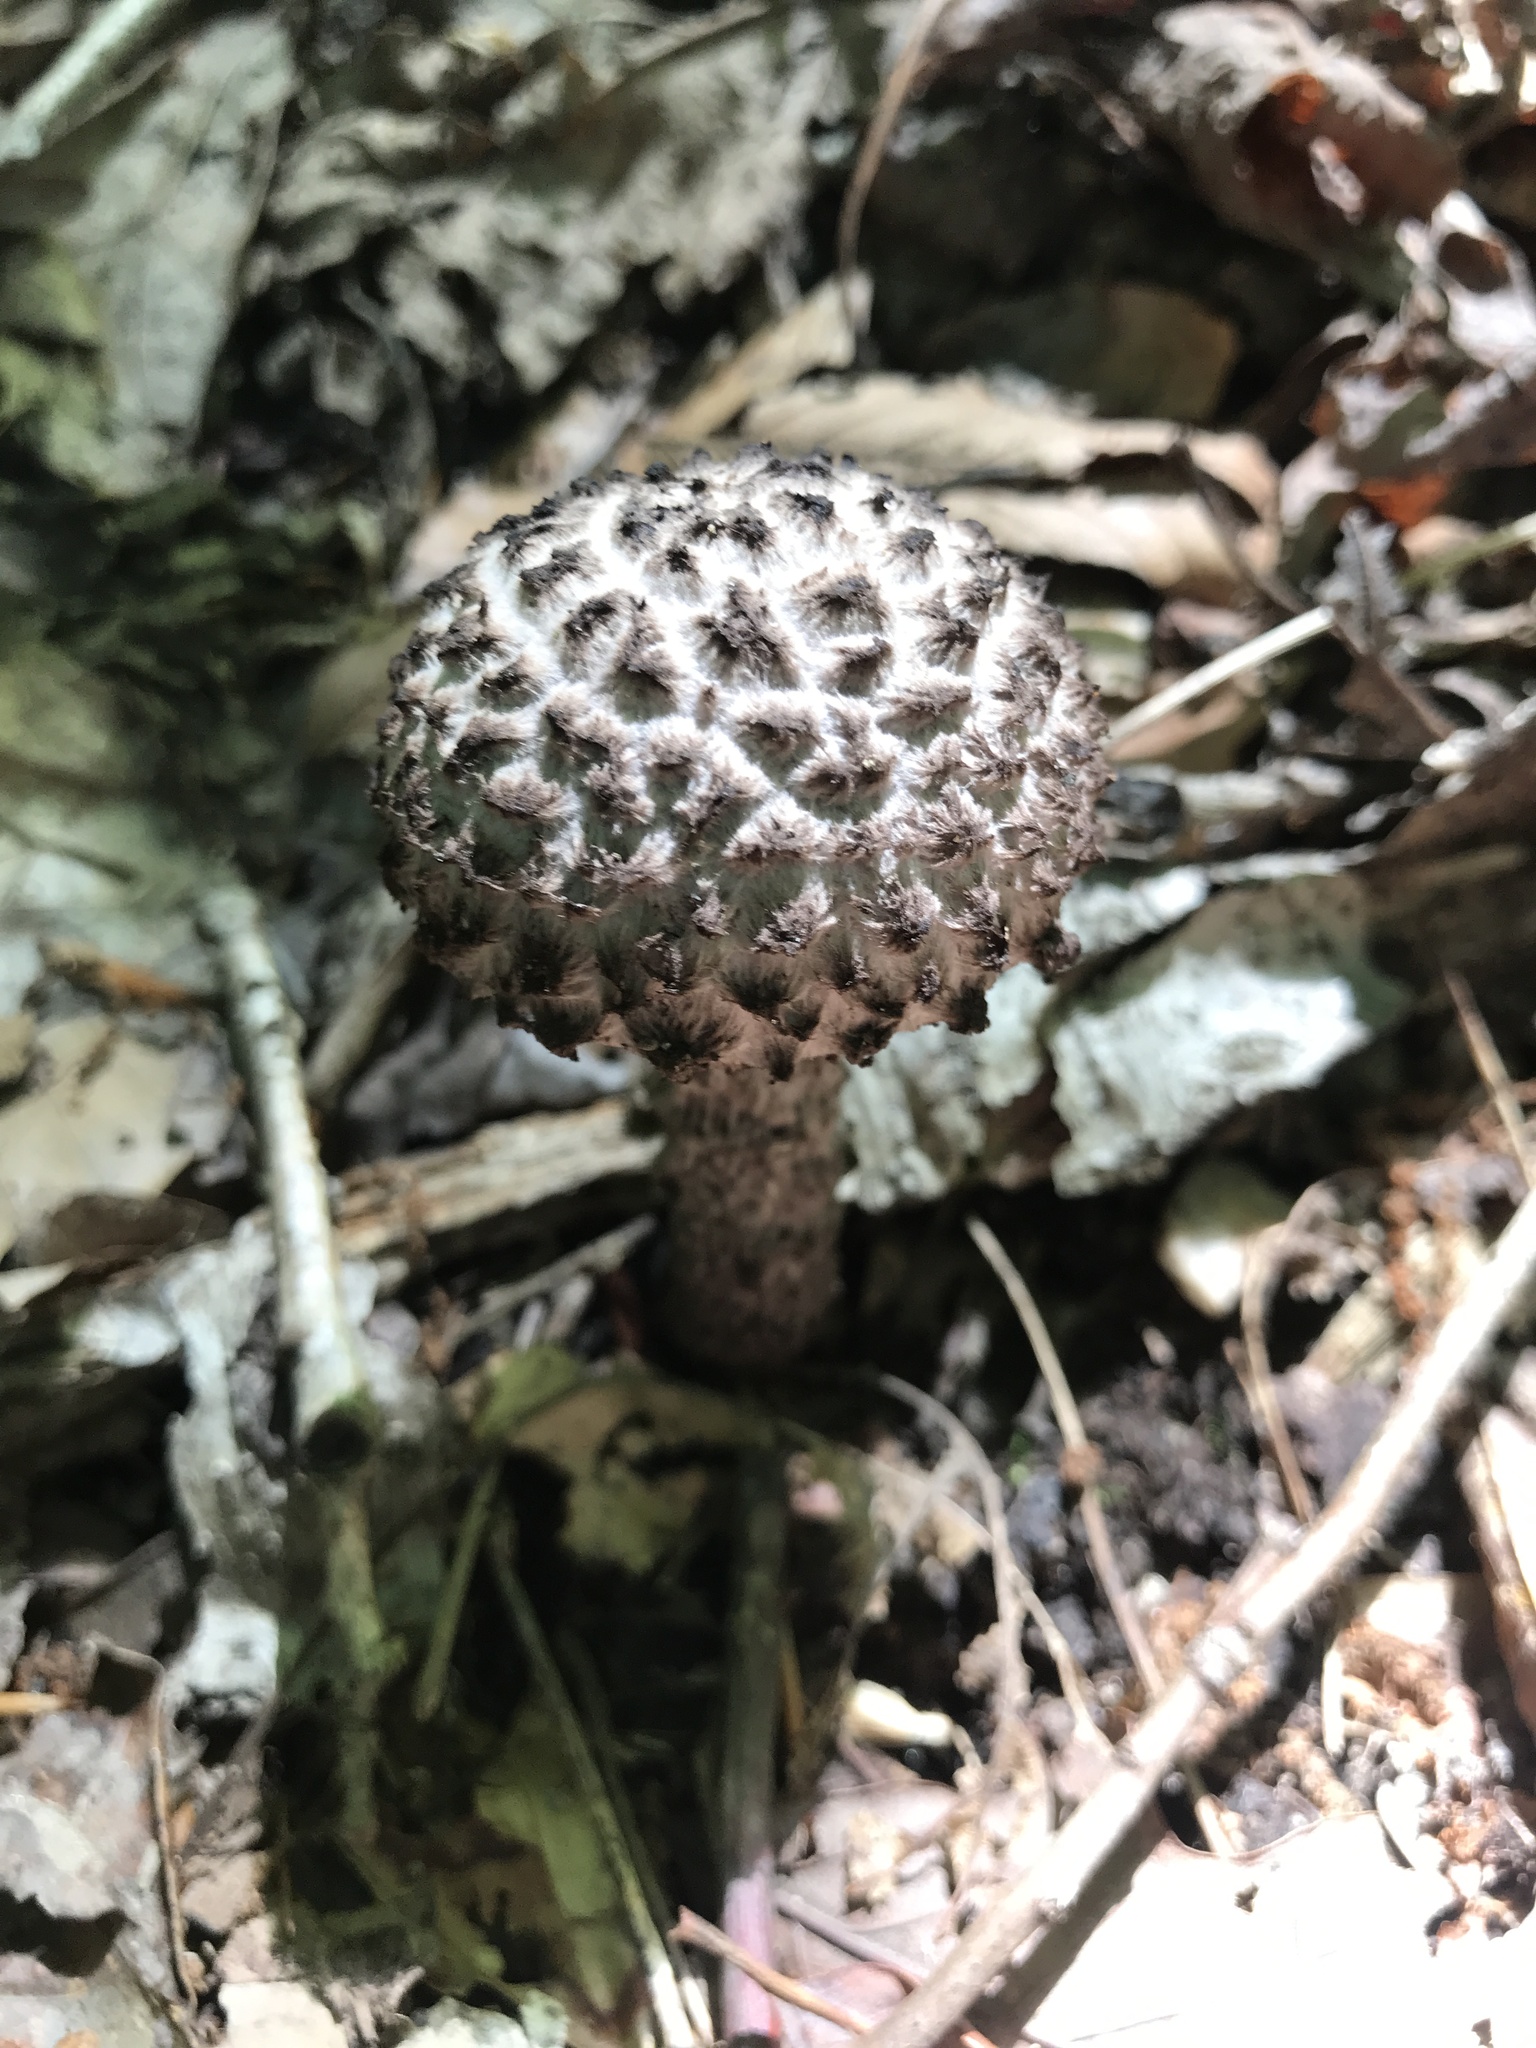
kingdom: Fungi
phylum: Basidiomycota
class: Agaricomycetes
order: Boletales
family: Boletaceae
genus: Strobilomyces
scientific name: Strobilomyces strobilaceus
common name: Old man of the woods
